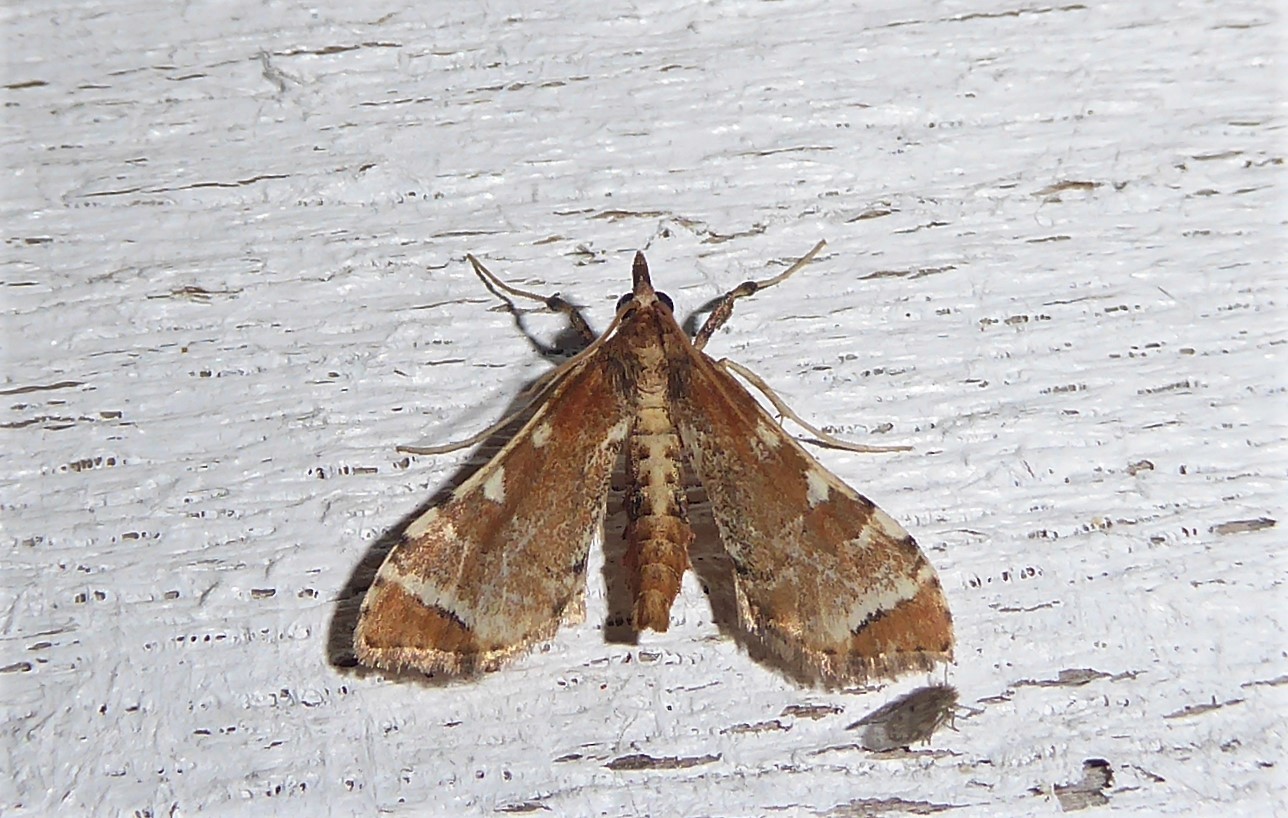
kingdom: Animalia
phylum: Arthropoda
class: Insecta
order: Lepidoptera
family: Crambidae
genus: Sceliodes
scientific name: Sceliodes cordalis
